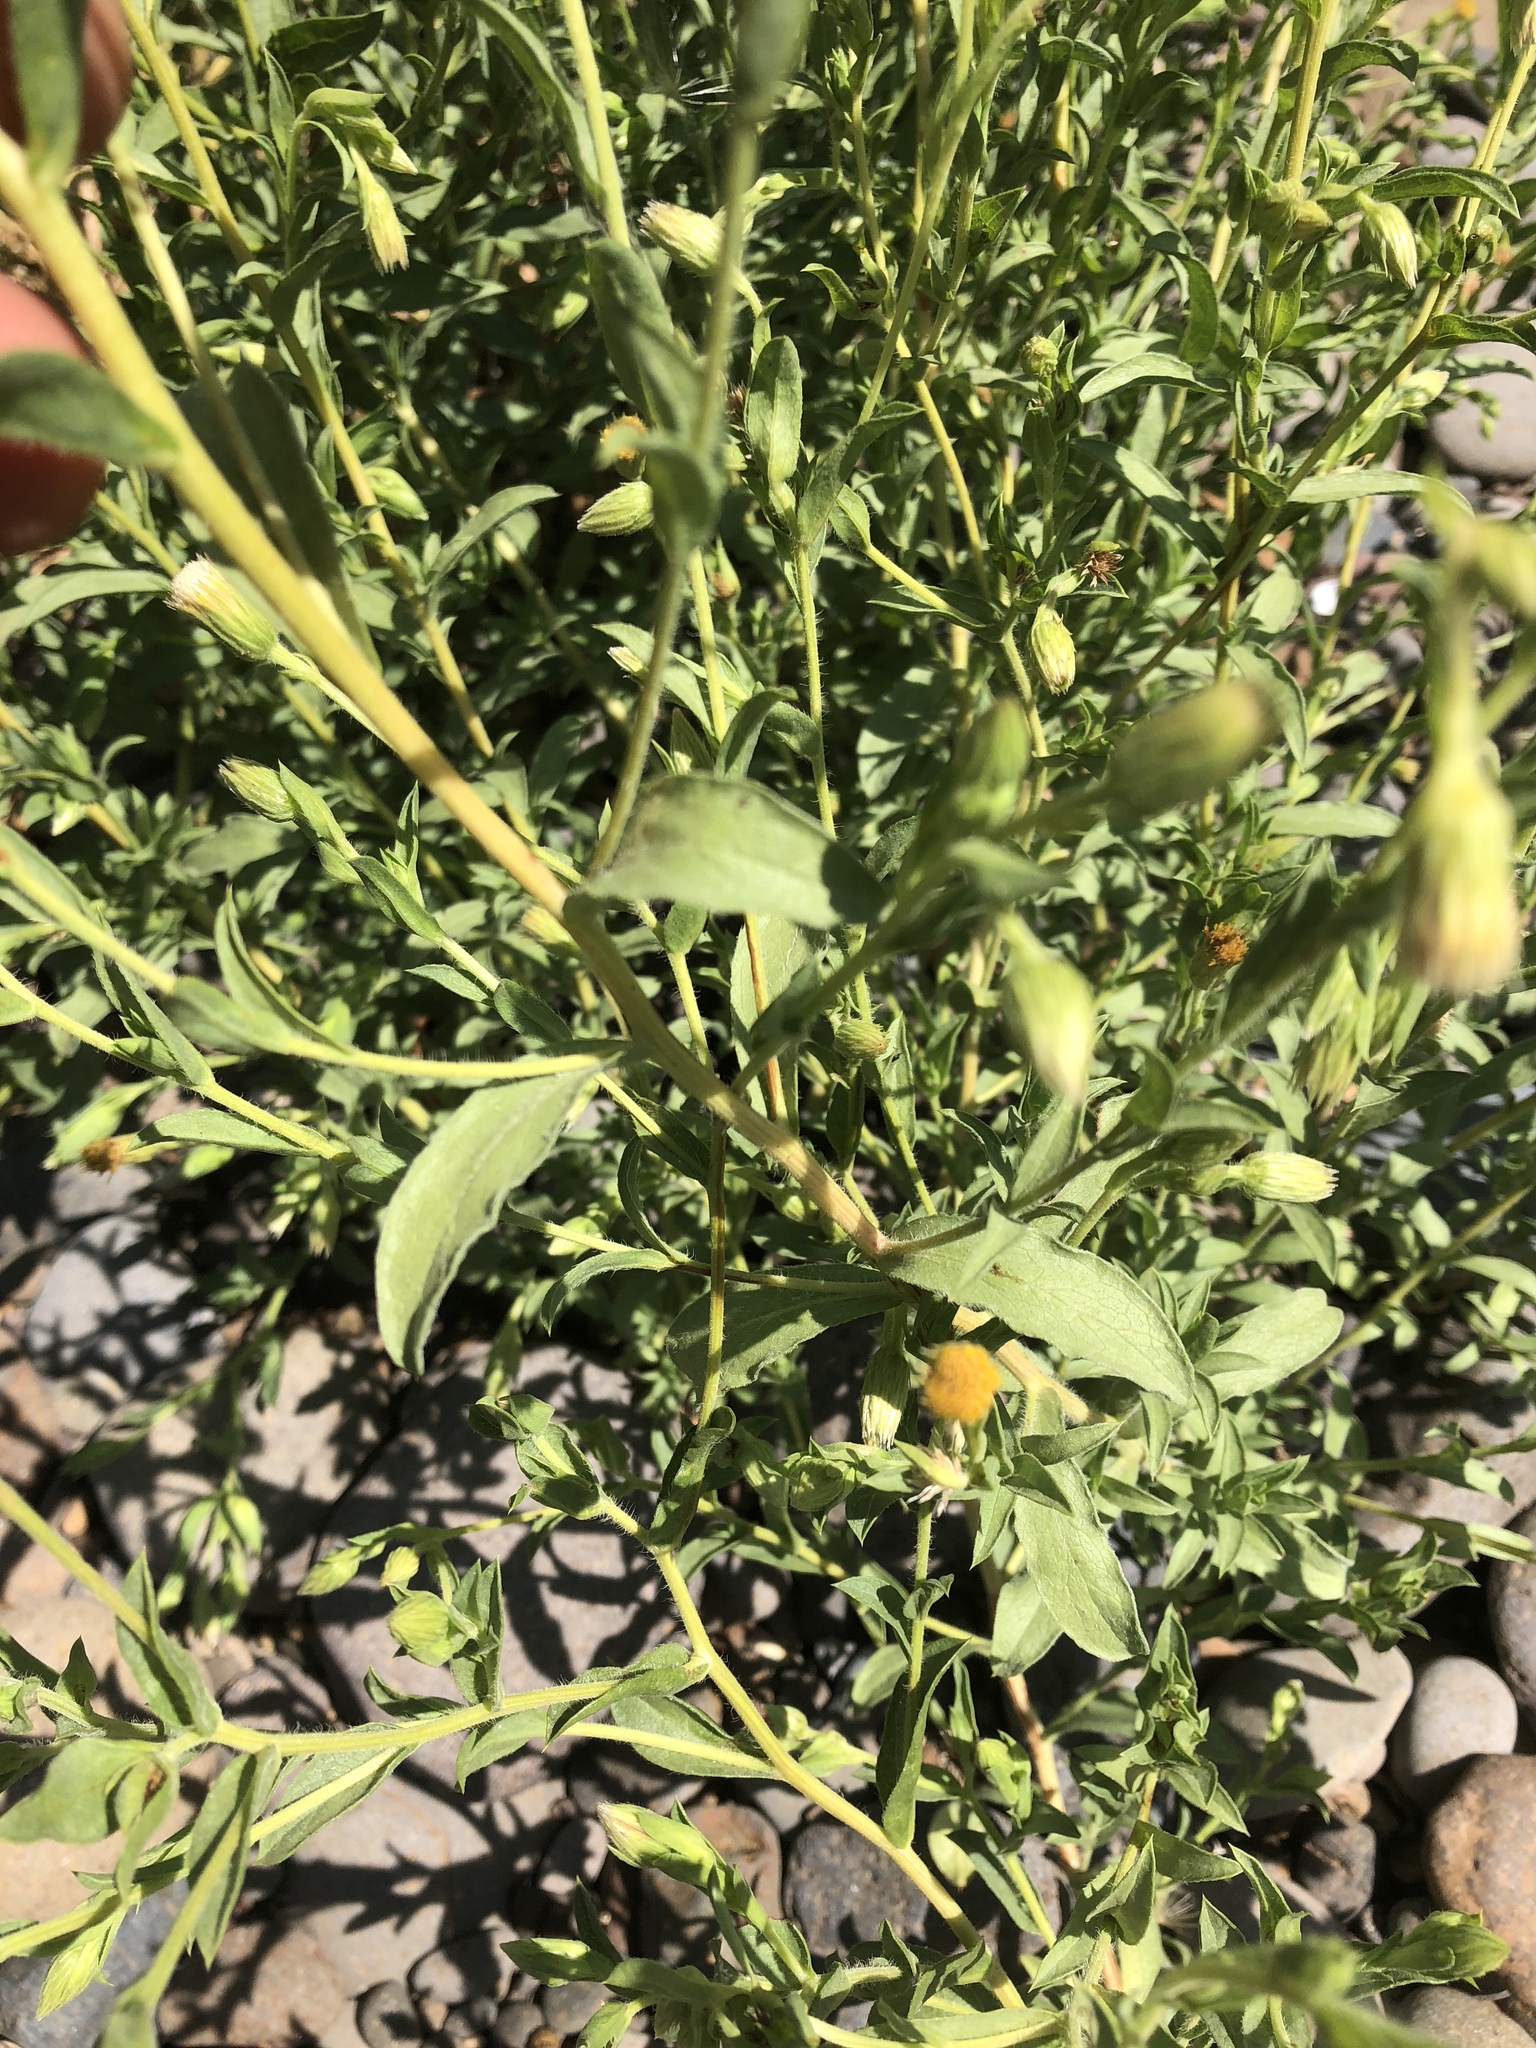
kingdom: Plantae
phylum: Tracheophyta
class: Magnoliopsida
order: Asterales
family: Asteraceae
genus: Heterotheca
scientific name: Heterotheca oregona
